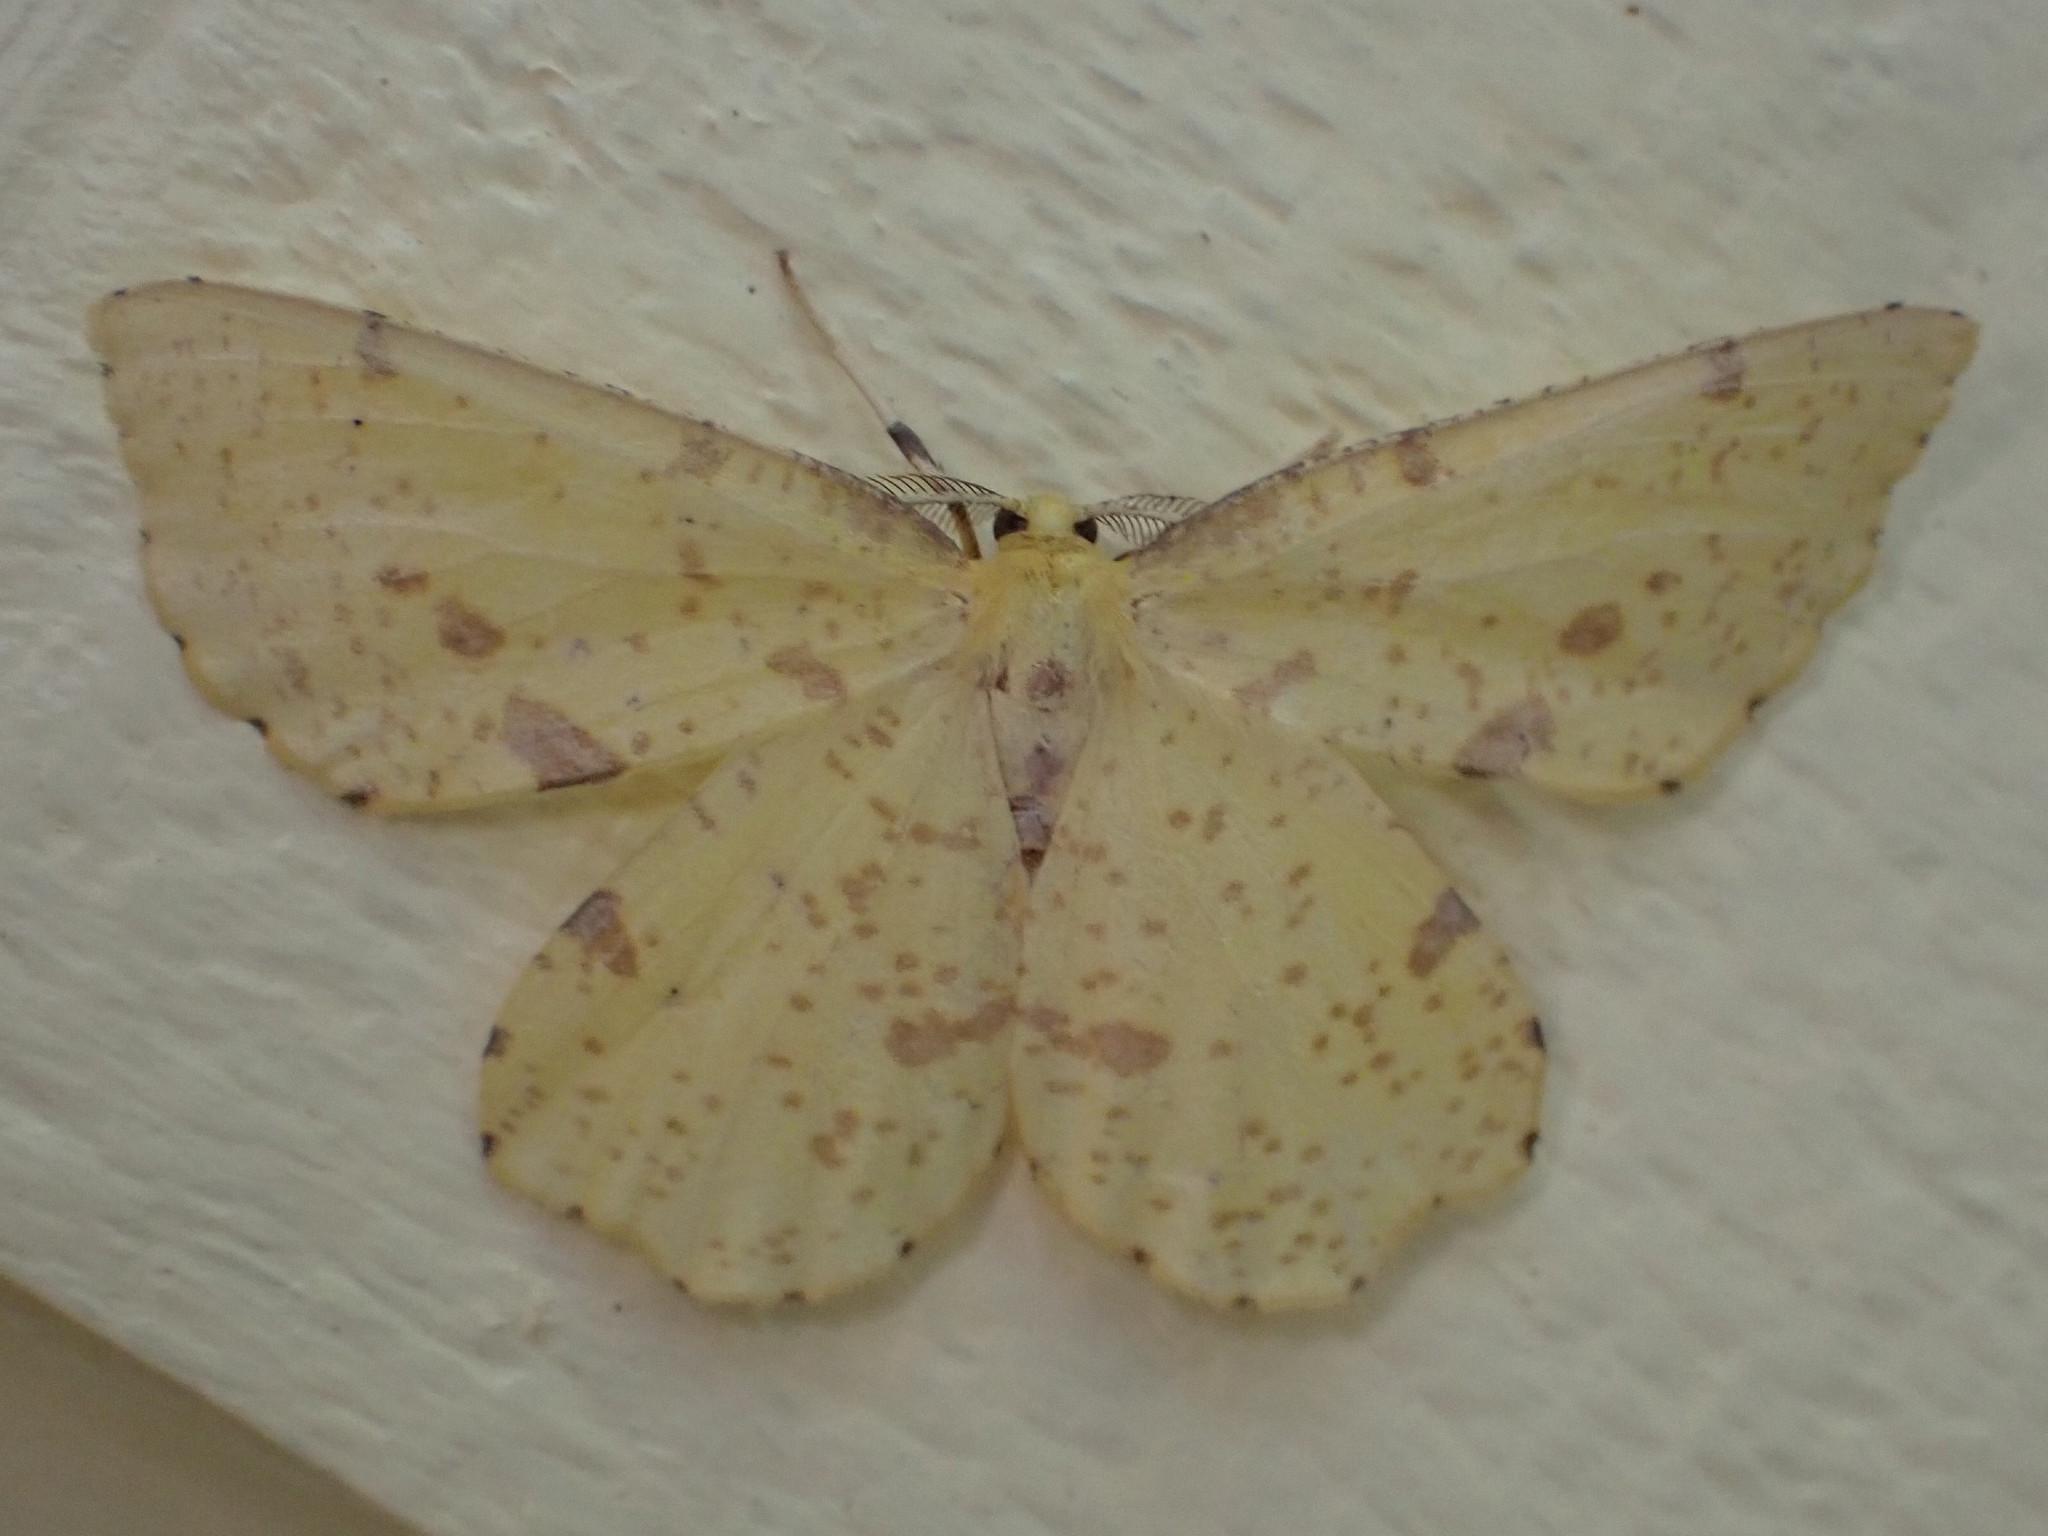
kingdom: Animalia
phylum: Arthropoda
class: Insecta
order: Lepidoptera
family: Geometridae
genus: Xanthotype
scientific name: Xanthotype
